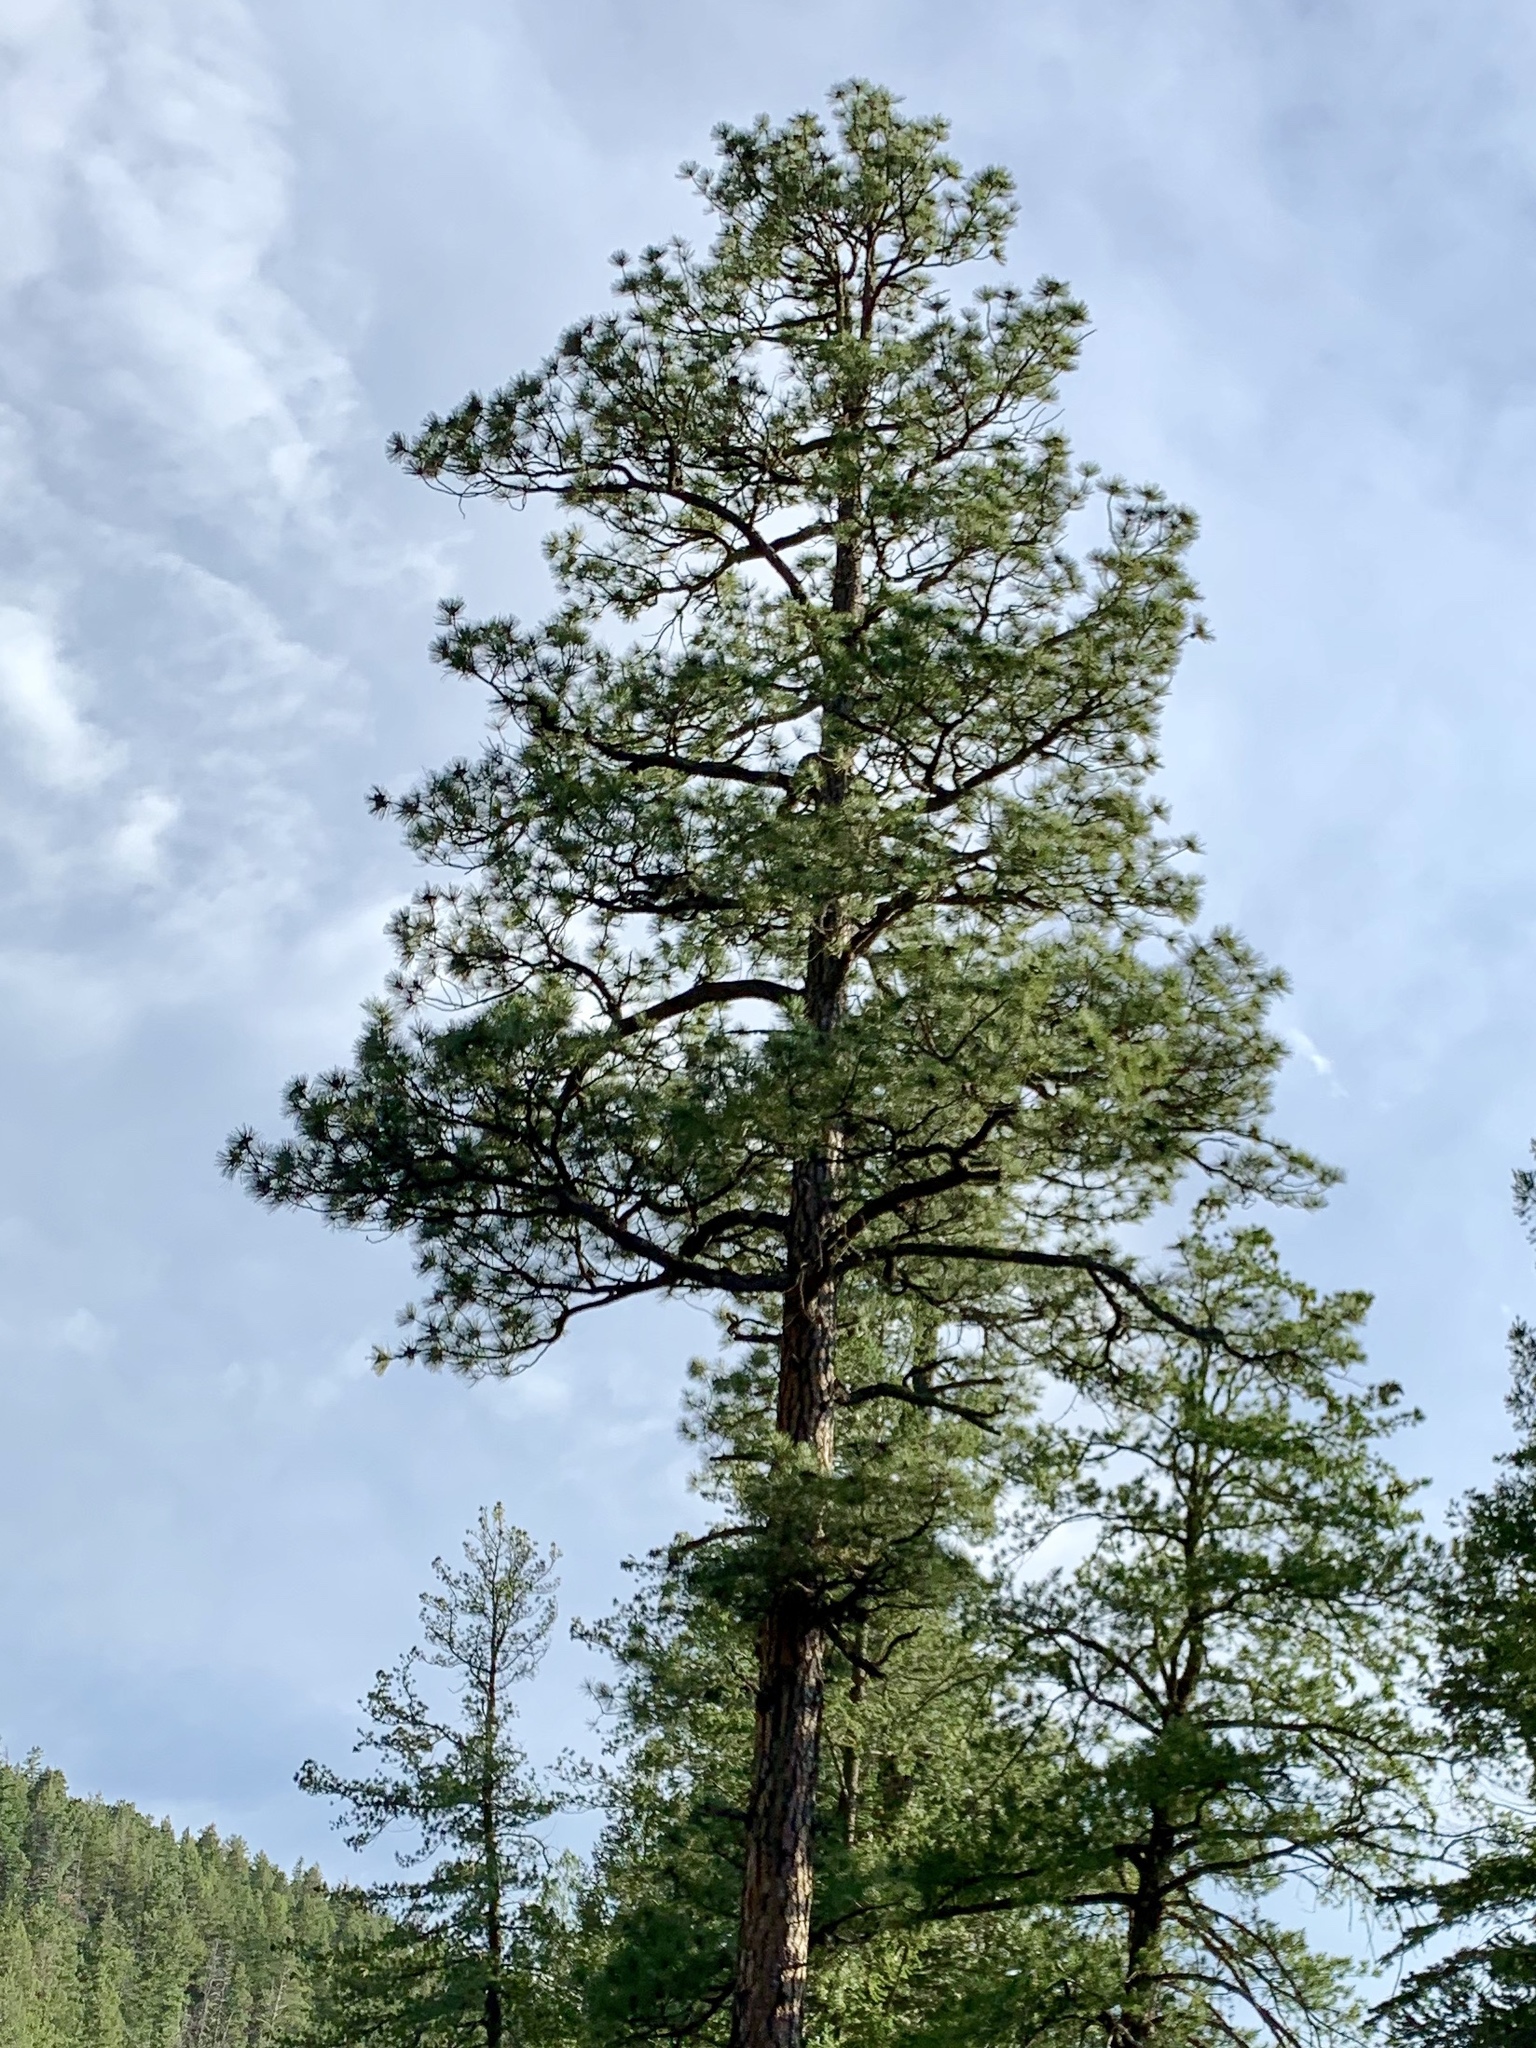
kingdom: Plantae
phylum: Tracheophyta
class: Pinopsida
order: Pinales
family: Pinaceae
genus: Pinus
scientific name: Pinus ponderosa
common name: Western yellow-pine
